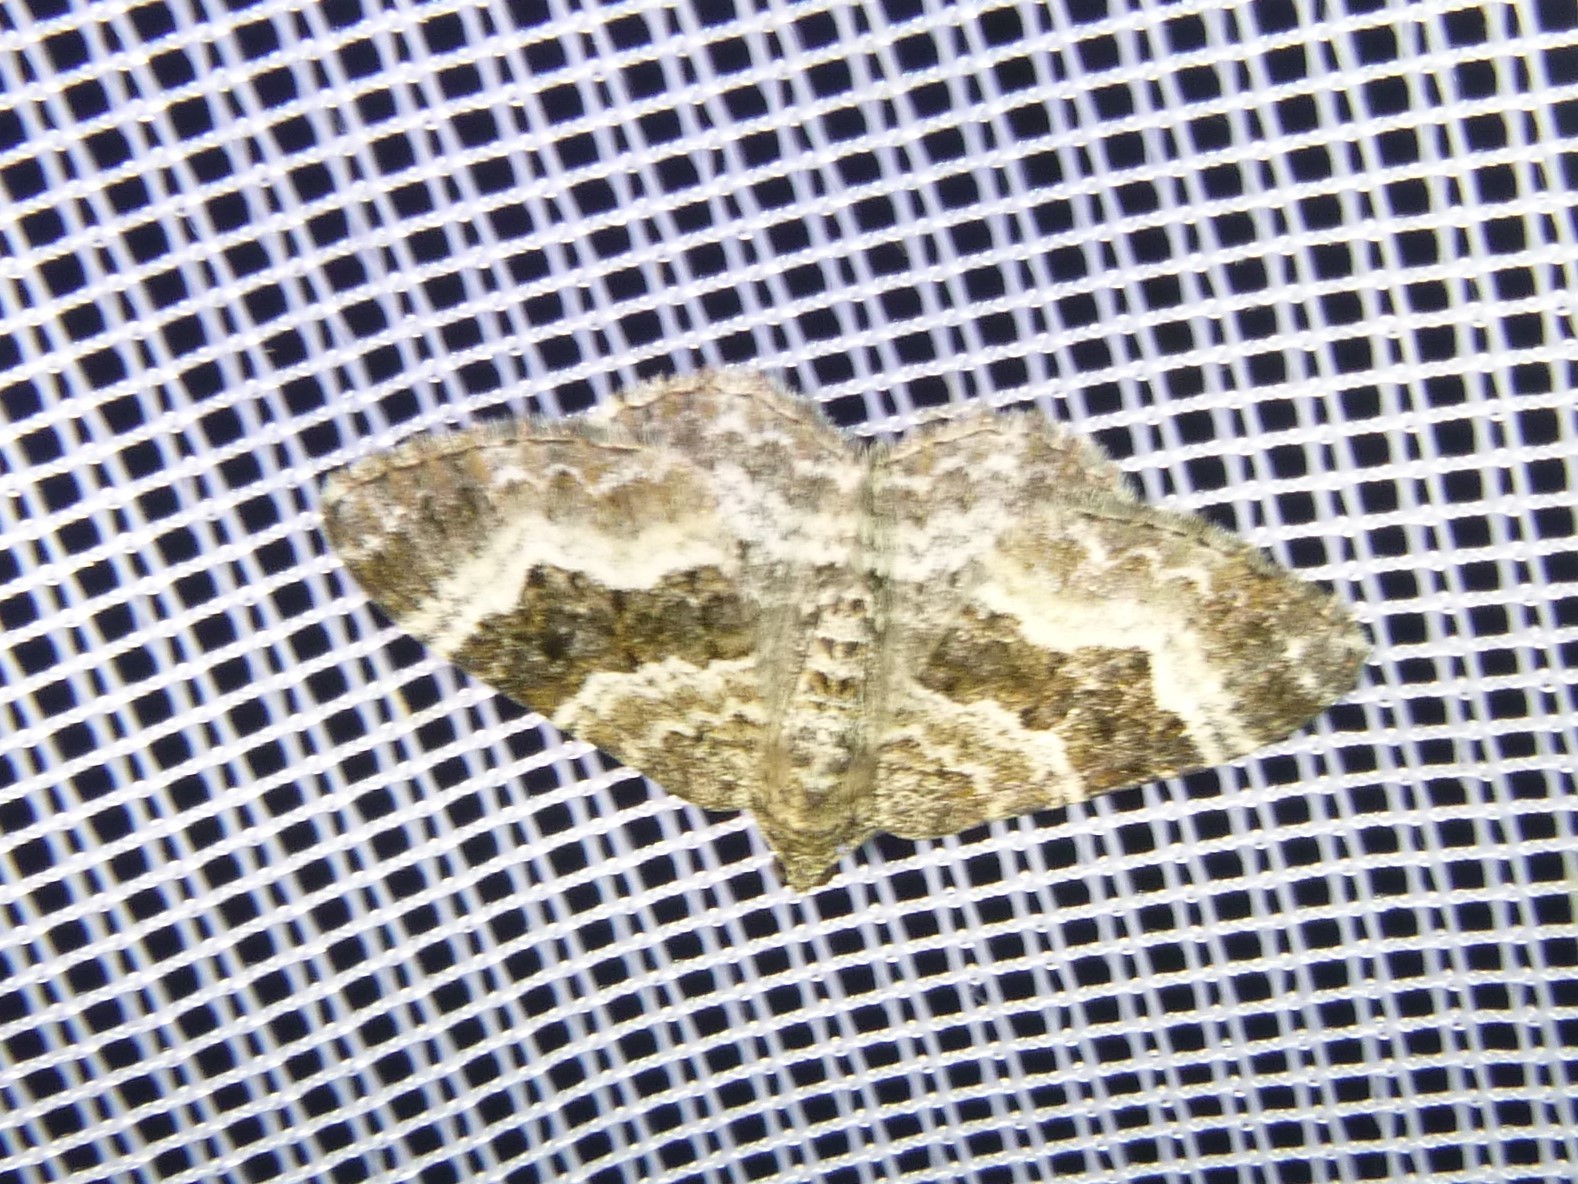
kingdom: Animalia
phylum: Arthropoda
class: Insecta
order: Lepidoptera
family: Geometridae
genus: Epirrhoe
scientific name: Epirrhoe alternata
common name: Common carpet
